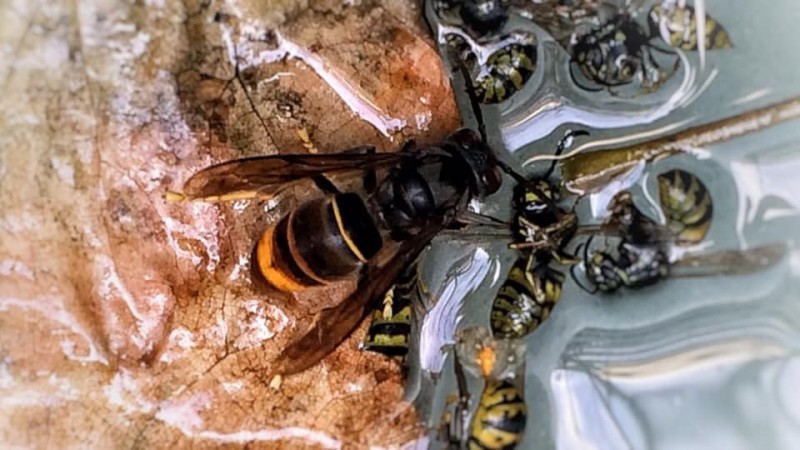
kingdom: Animalia
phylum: Arthropoda
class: Insecta
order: Hymenoptera
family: Vespidae
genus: Vespa
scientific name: Vespa velutina
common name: Asian hornet
